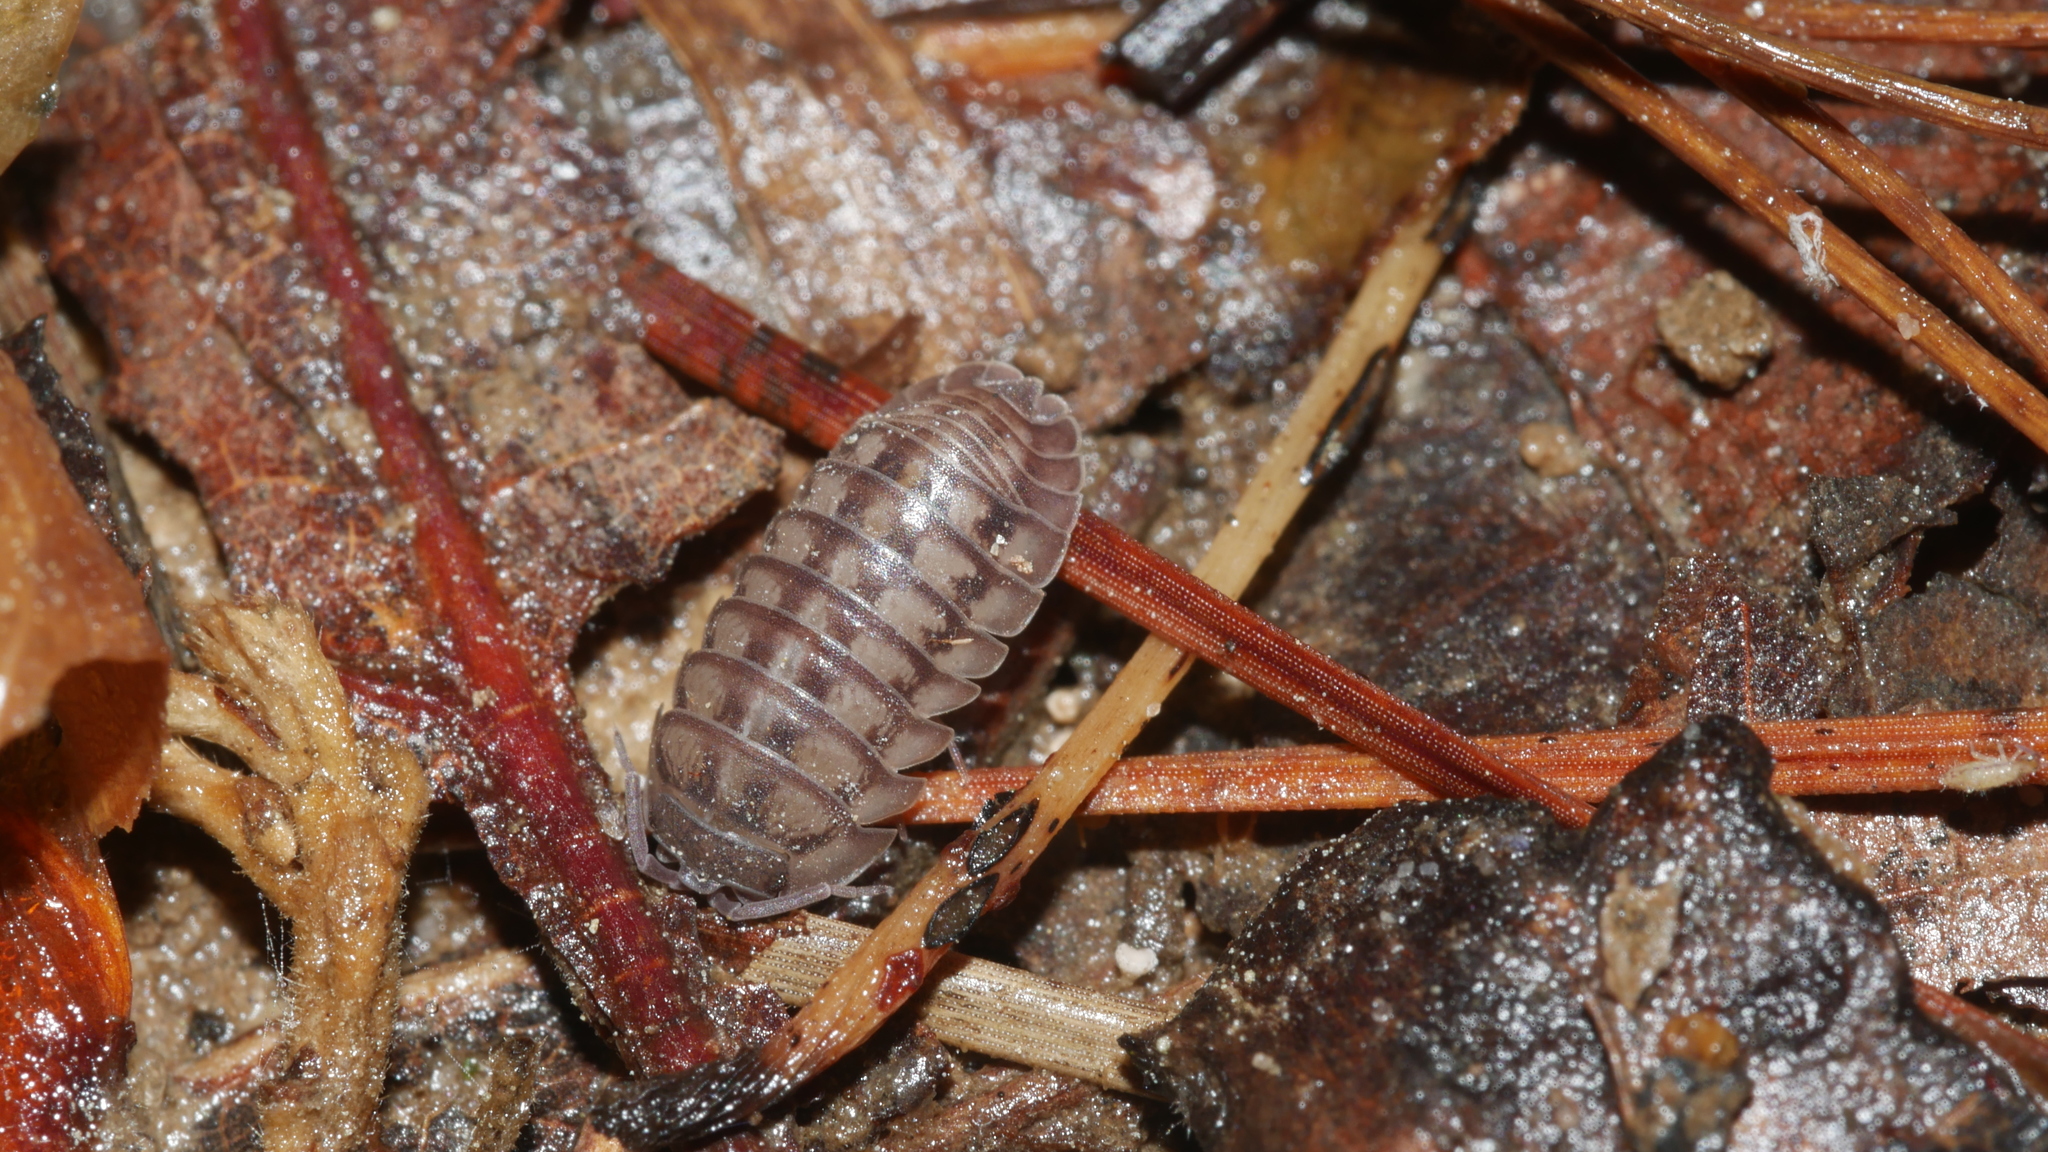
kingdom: Animalia
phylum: Arthropoda
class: Malacostraca
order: Isopoda
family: Armadillidiidae
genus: Armadillidium
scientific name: Armadillidium nasatum
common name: Isopod
